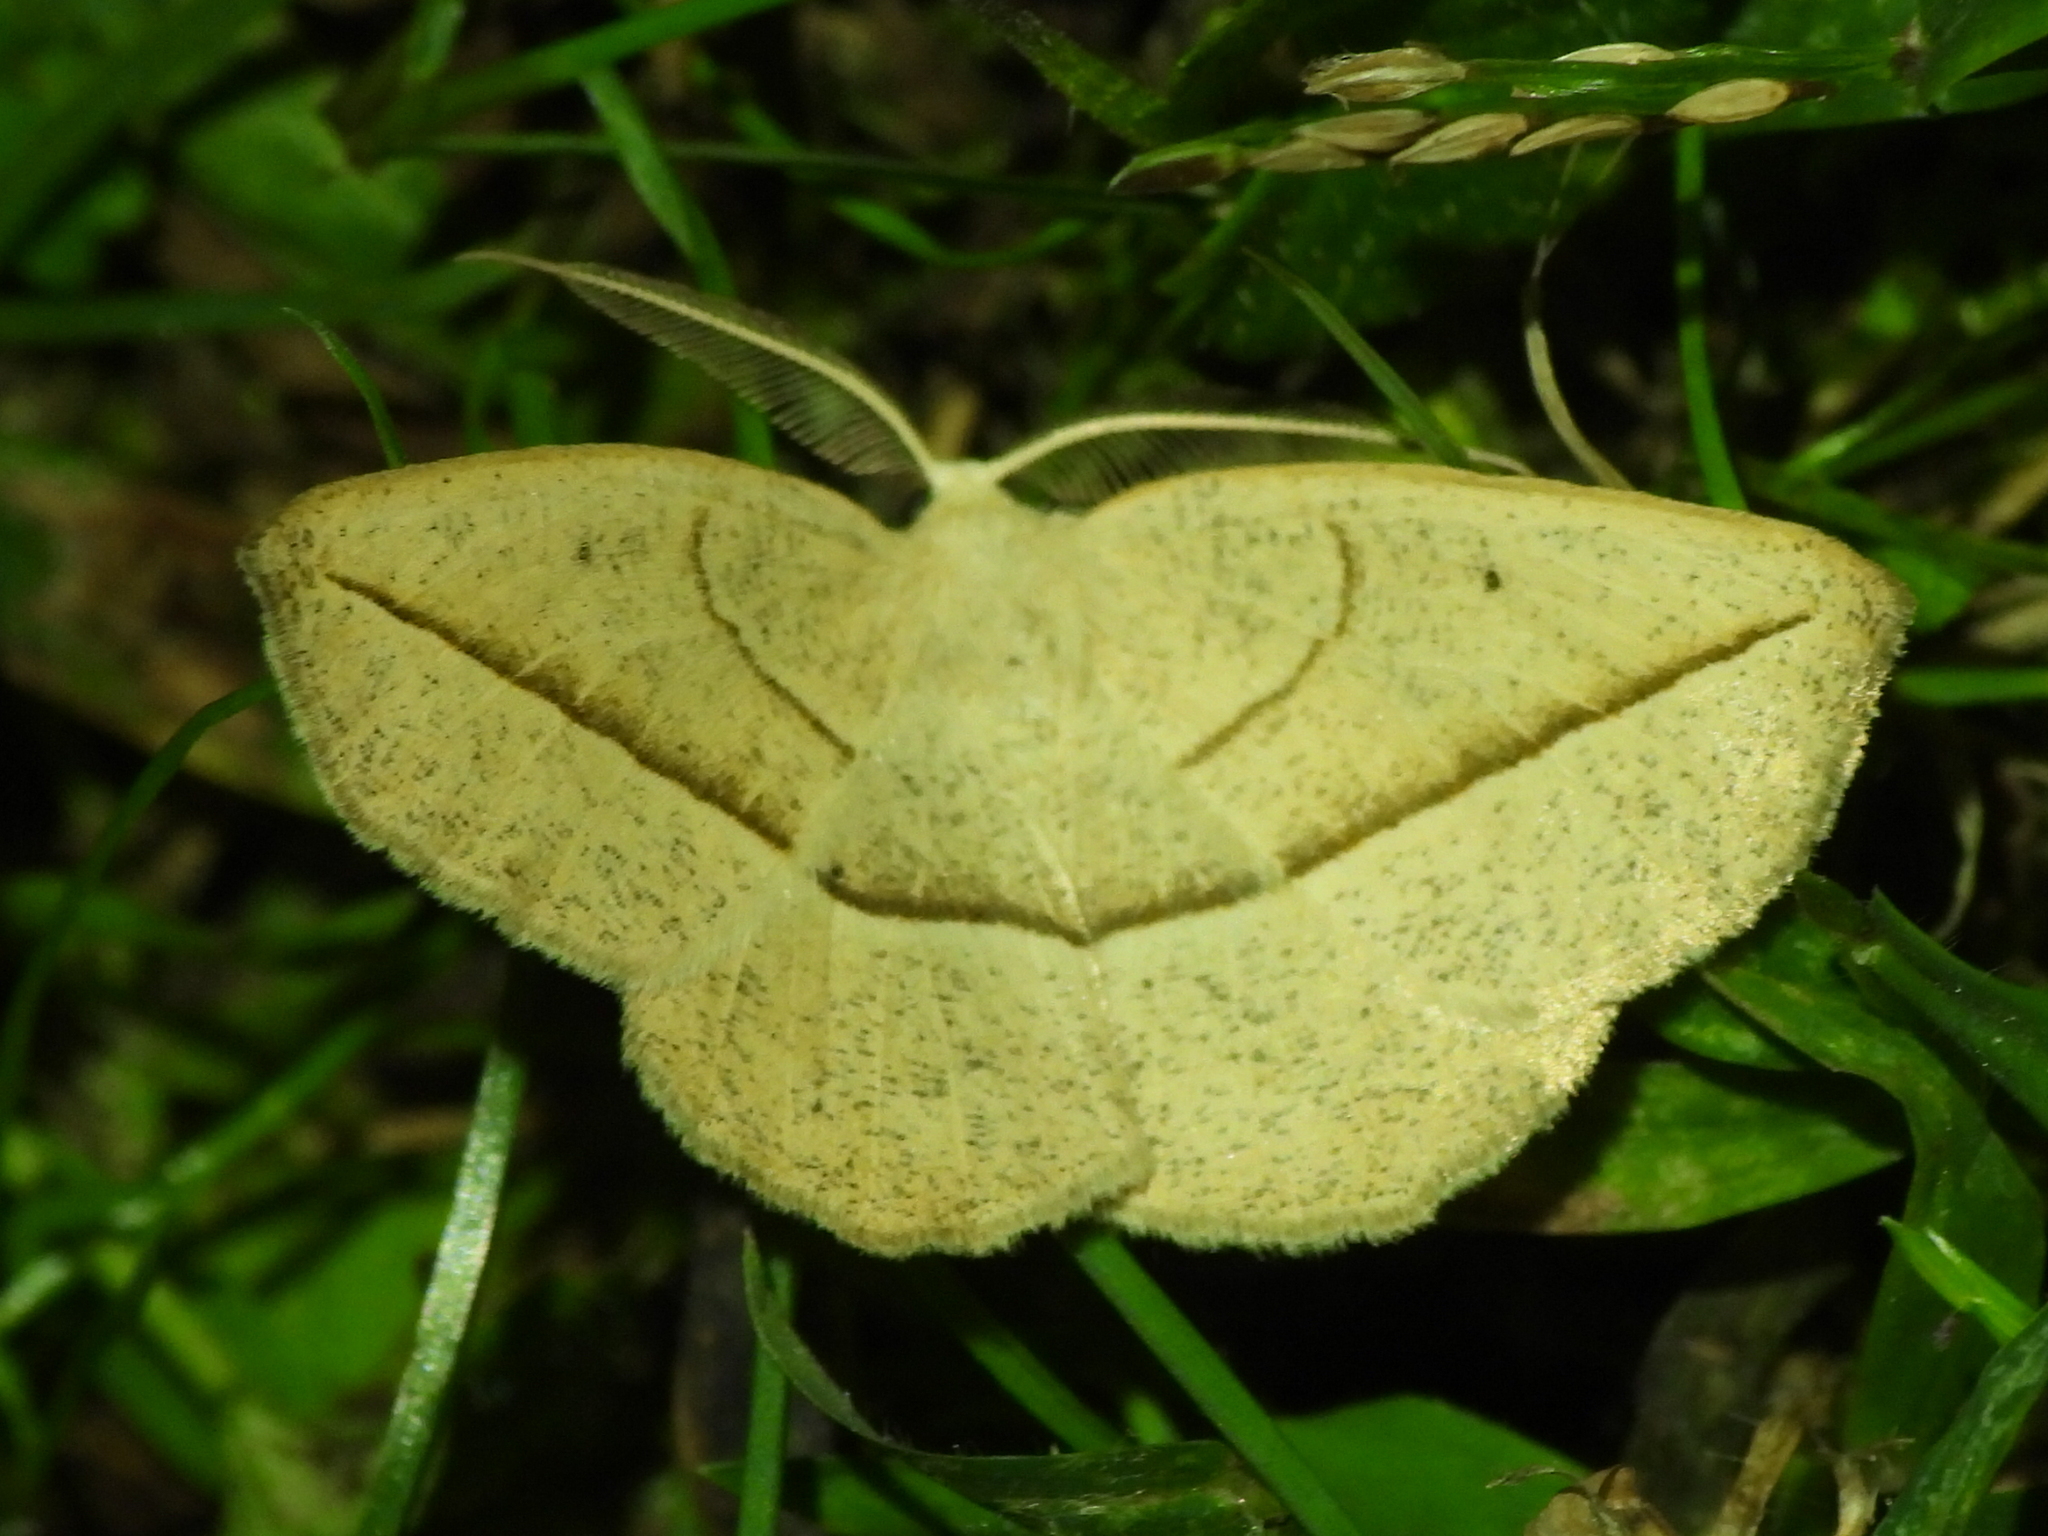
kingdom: Animalia
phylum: Arthropoda
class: Insecta
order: Lepidoptera
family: Geometridae
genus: Eusarca
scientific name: Eusarca confusaria
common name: Confused eusarca
